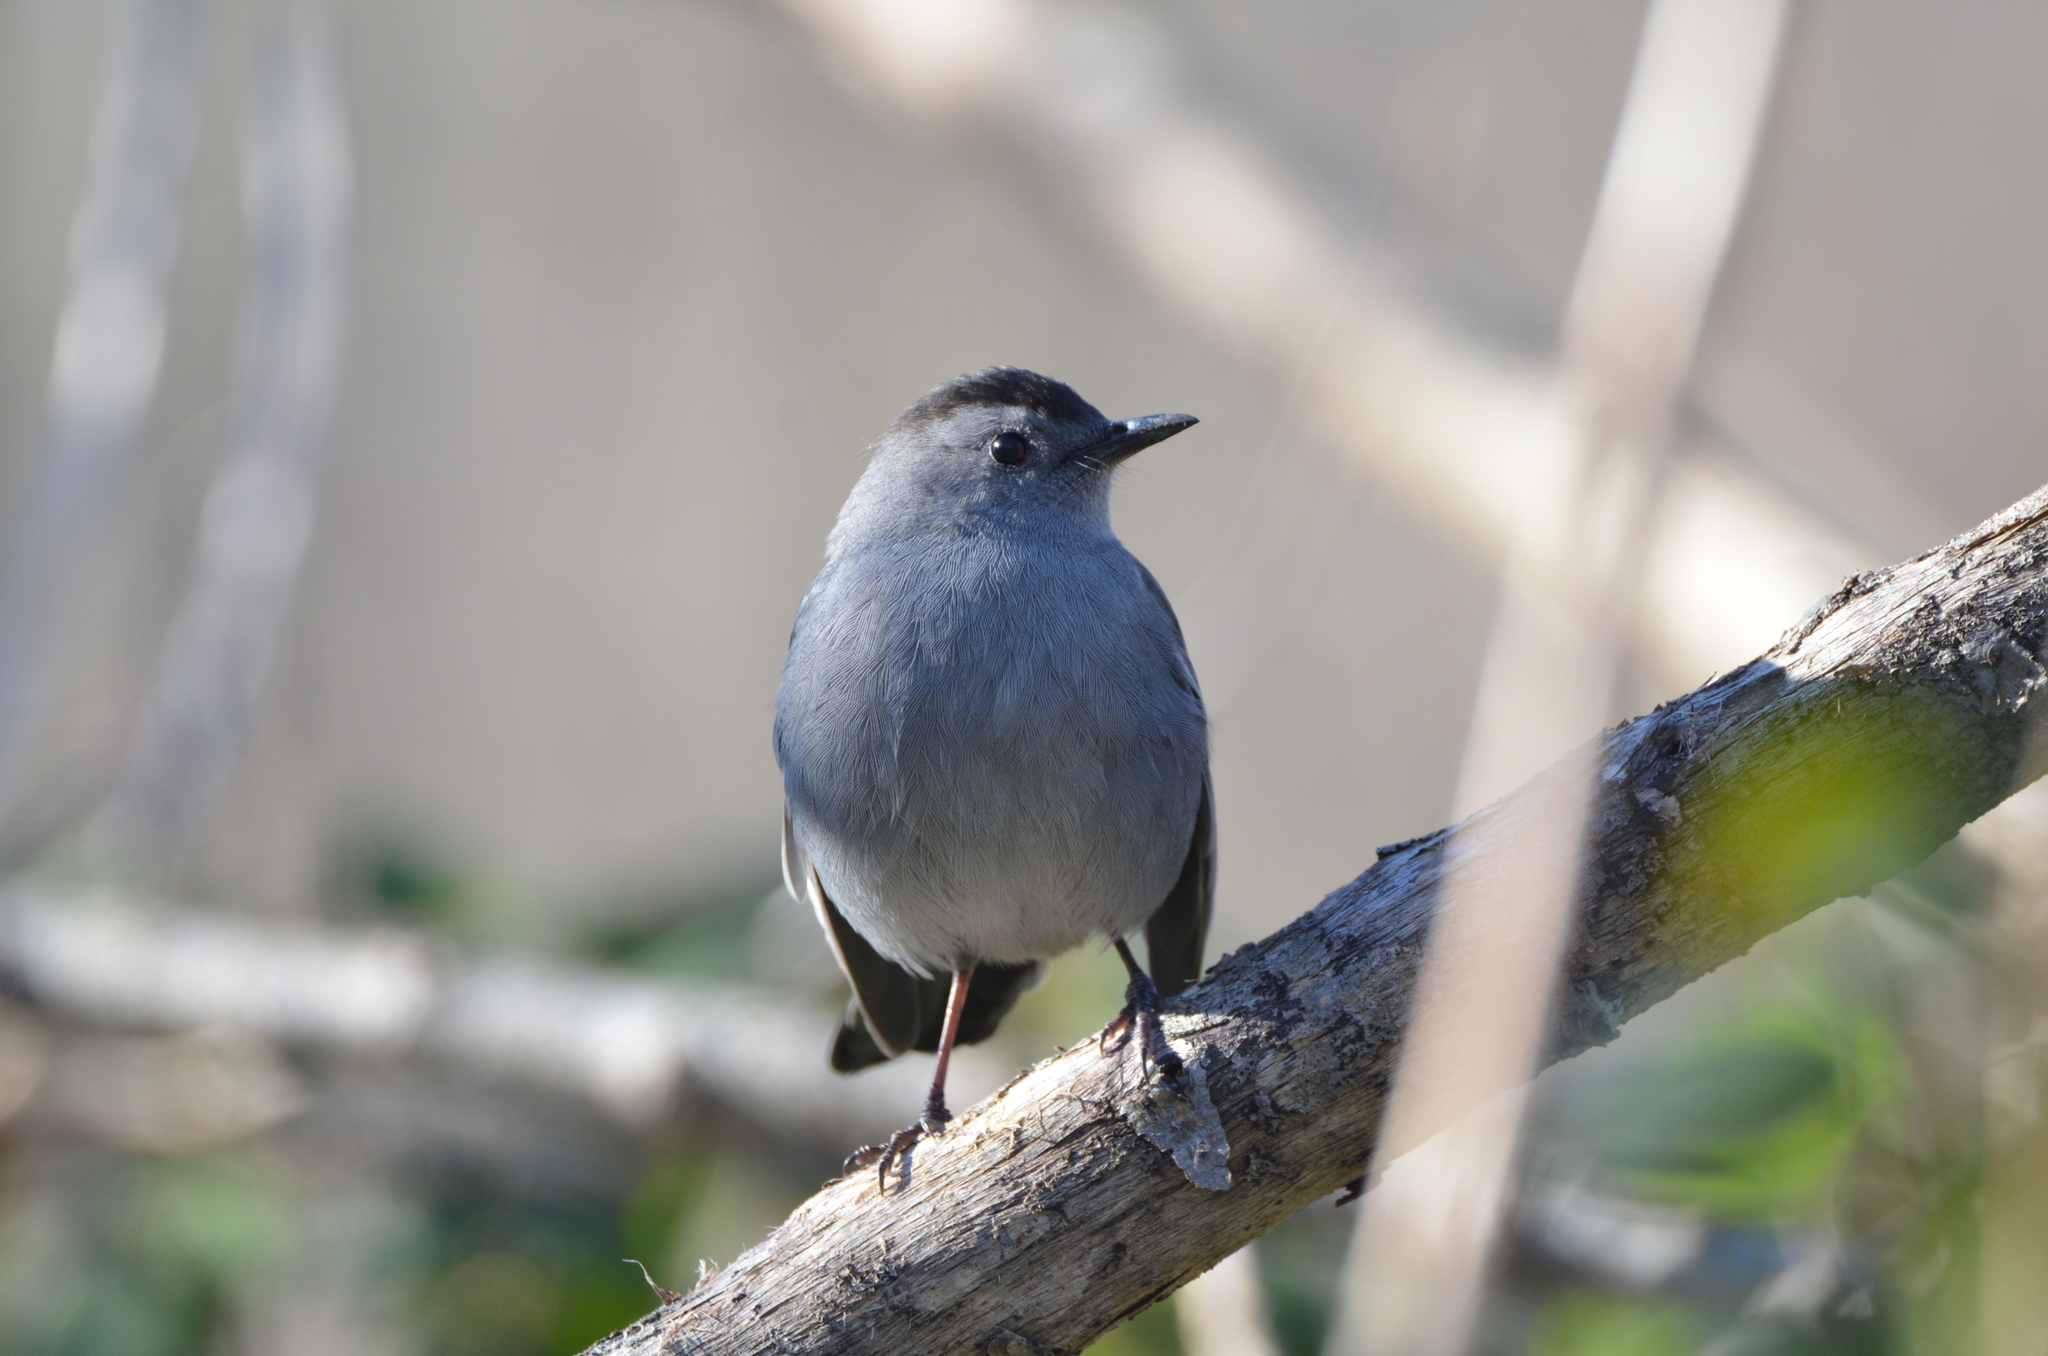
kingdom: Animalia
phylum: Chordata
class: Aves
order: Passeriformes
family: Mimidae
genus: Dumetella
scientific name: Dumetella carolinensis
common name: Gray catbird
